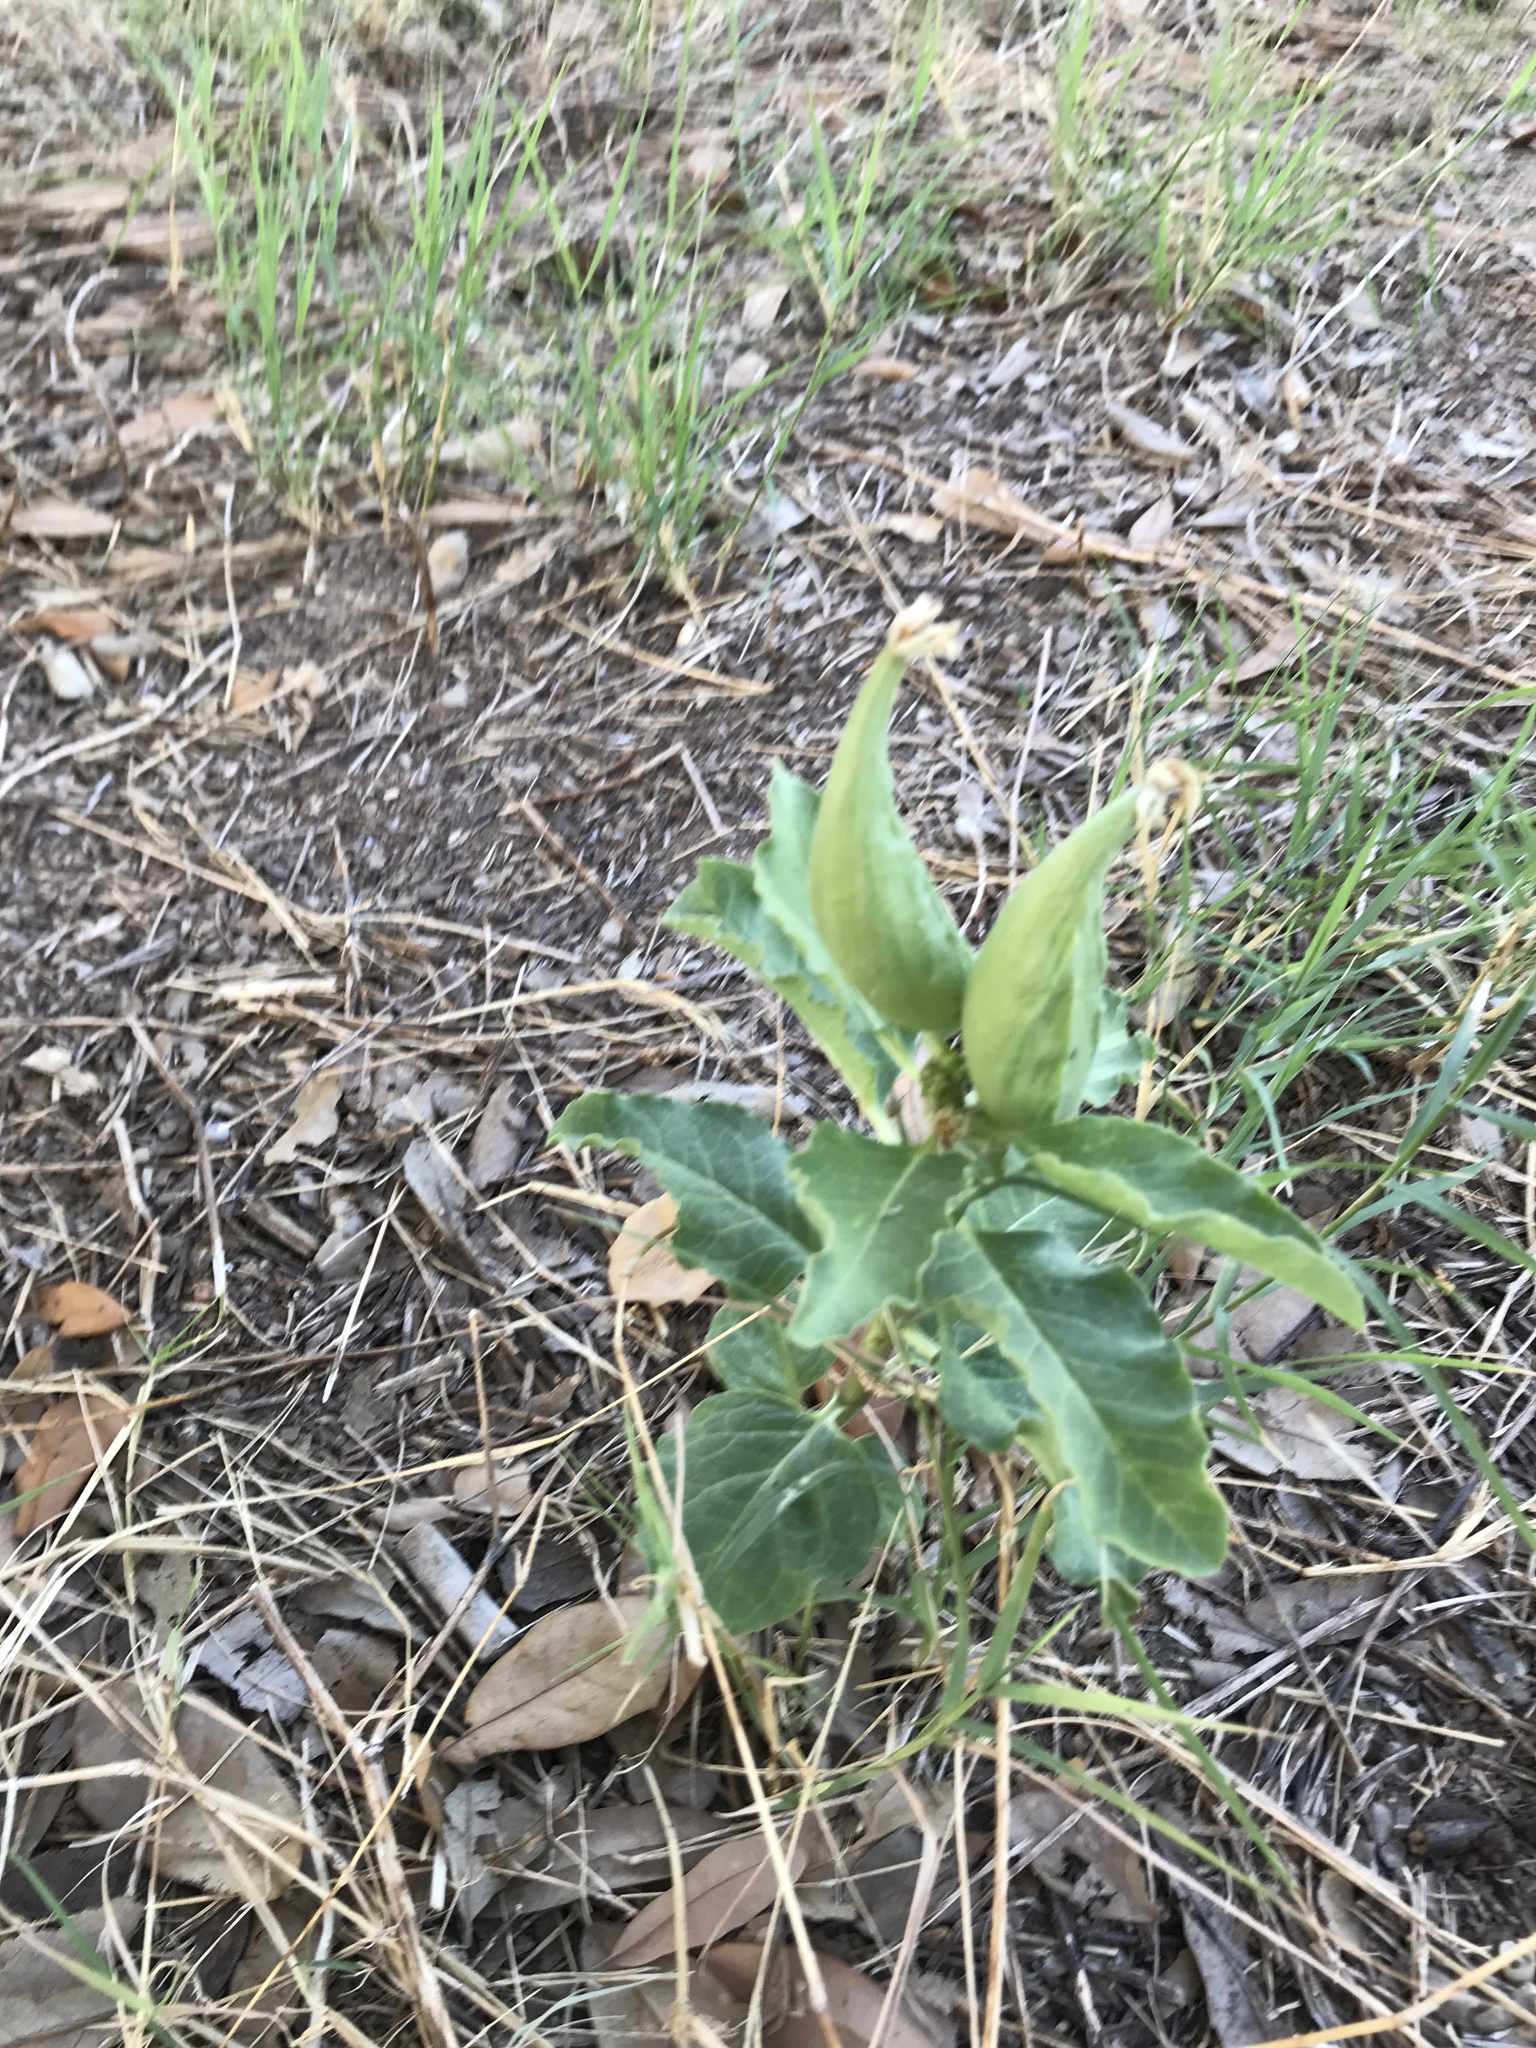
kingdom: Plantae
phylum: Tracheophyta
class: Magnoliopsida
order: Gentianales
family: Apocynaceae
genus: Asclepias
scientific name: Asclepias oenotheroides
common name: Zizotes milkweed
